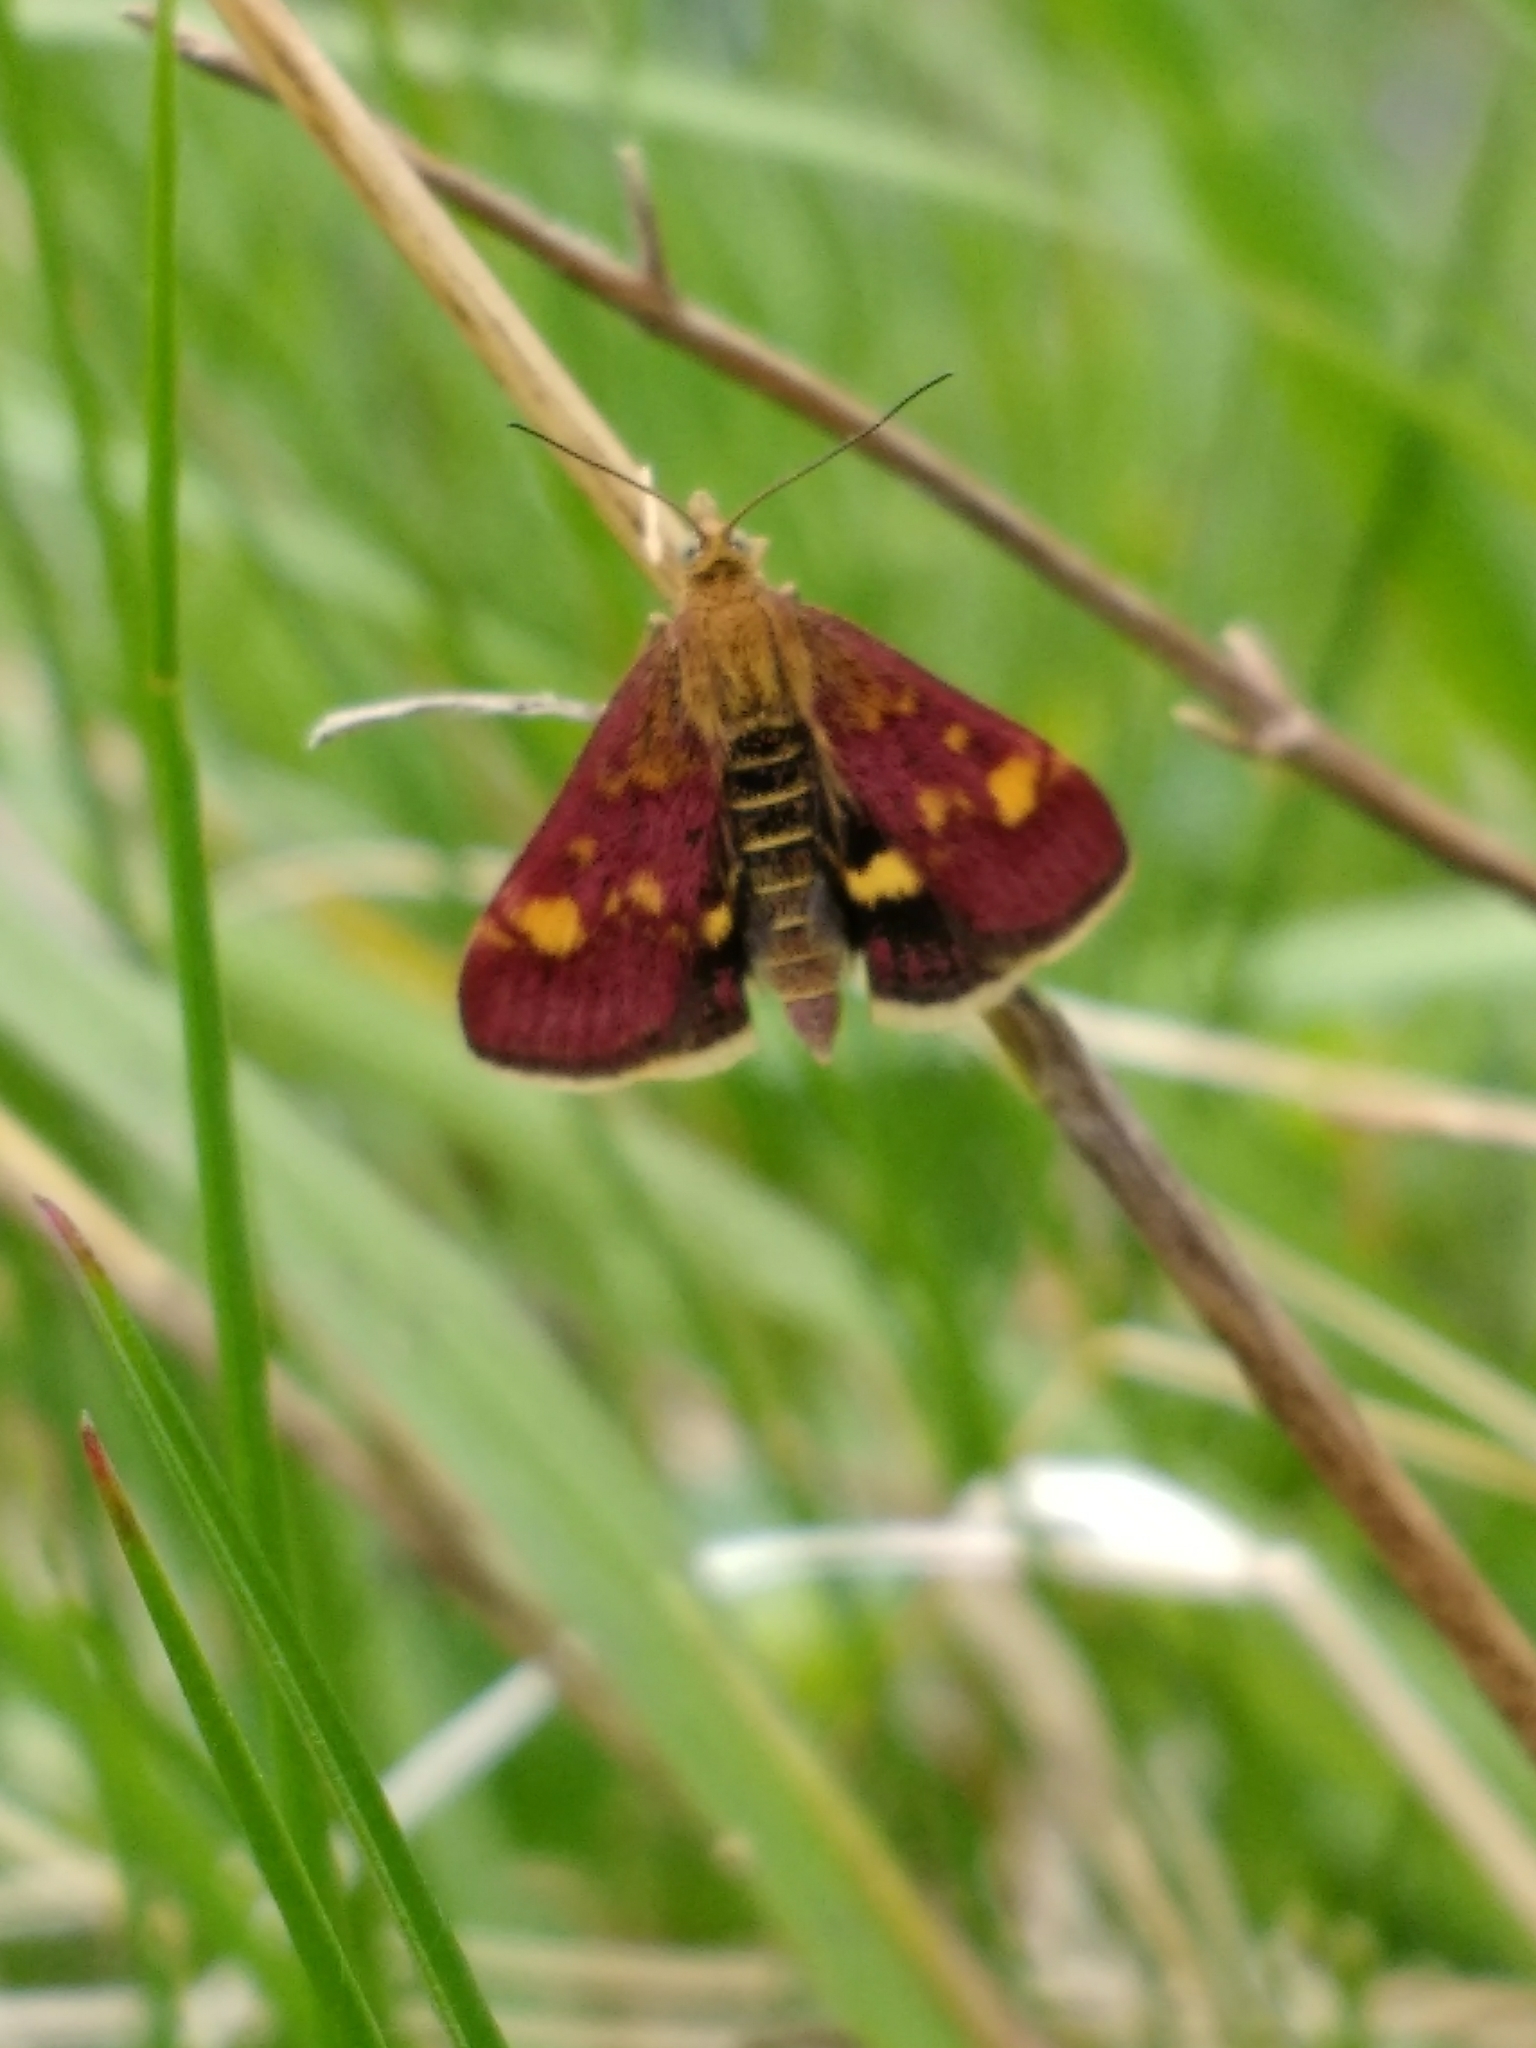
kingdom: Animalia
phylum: Arthropoda
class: Insecta
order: Lepidoptera
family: Crambidae
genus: Pyrausta
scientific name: Pyrausta aurata
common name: Small purple & gold
